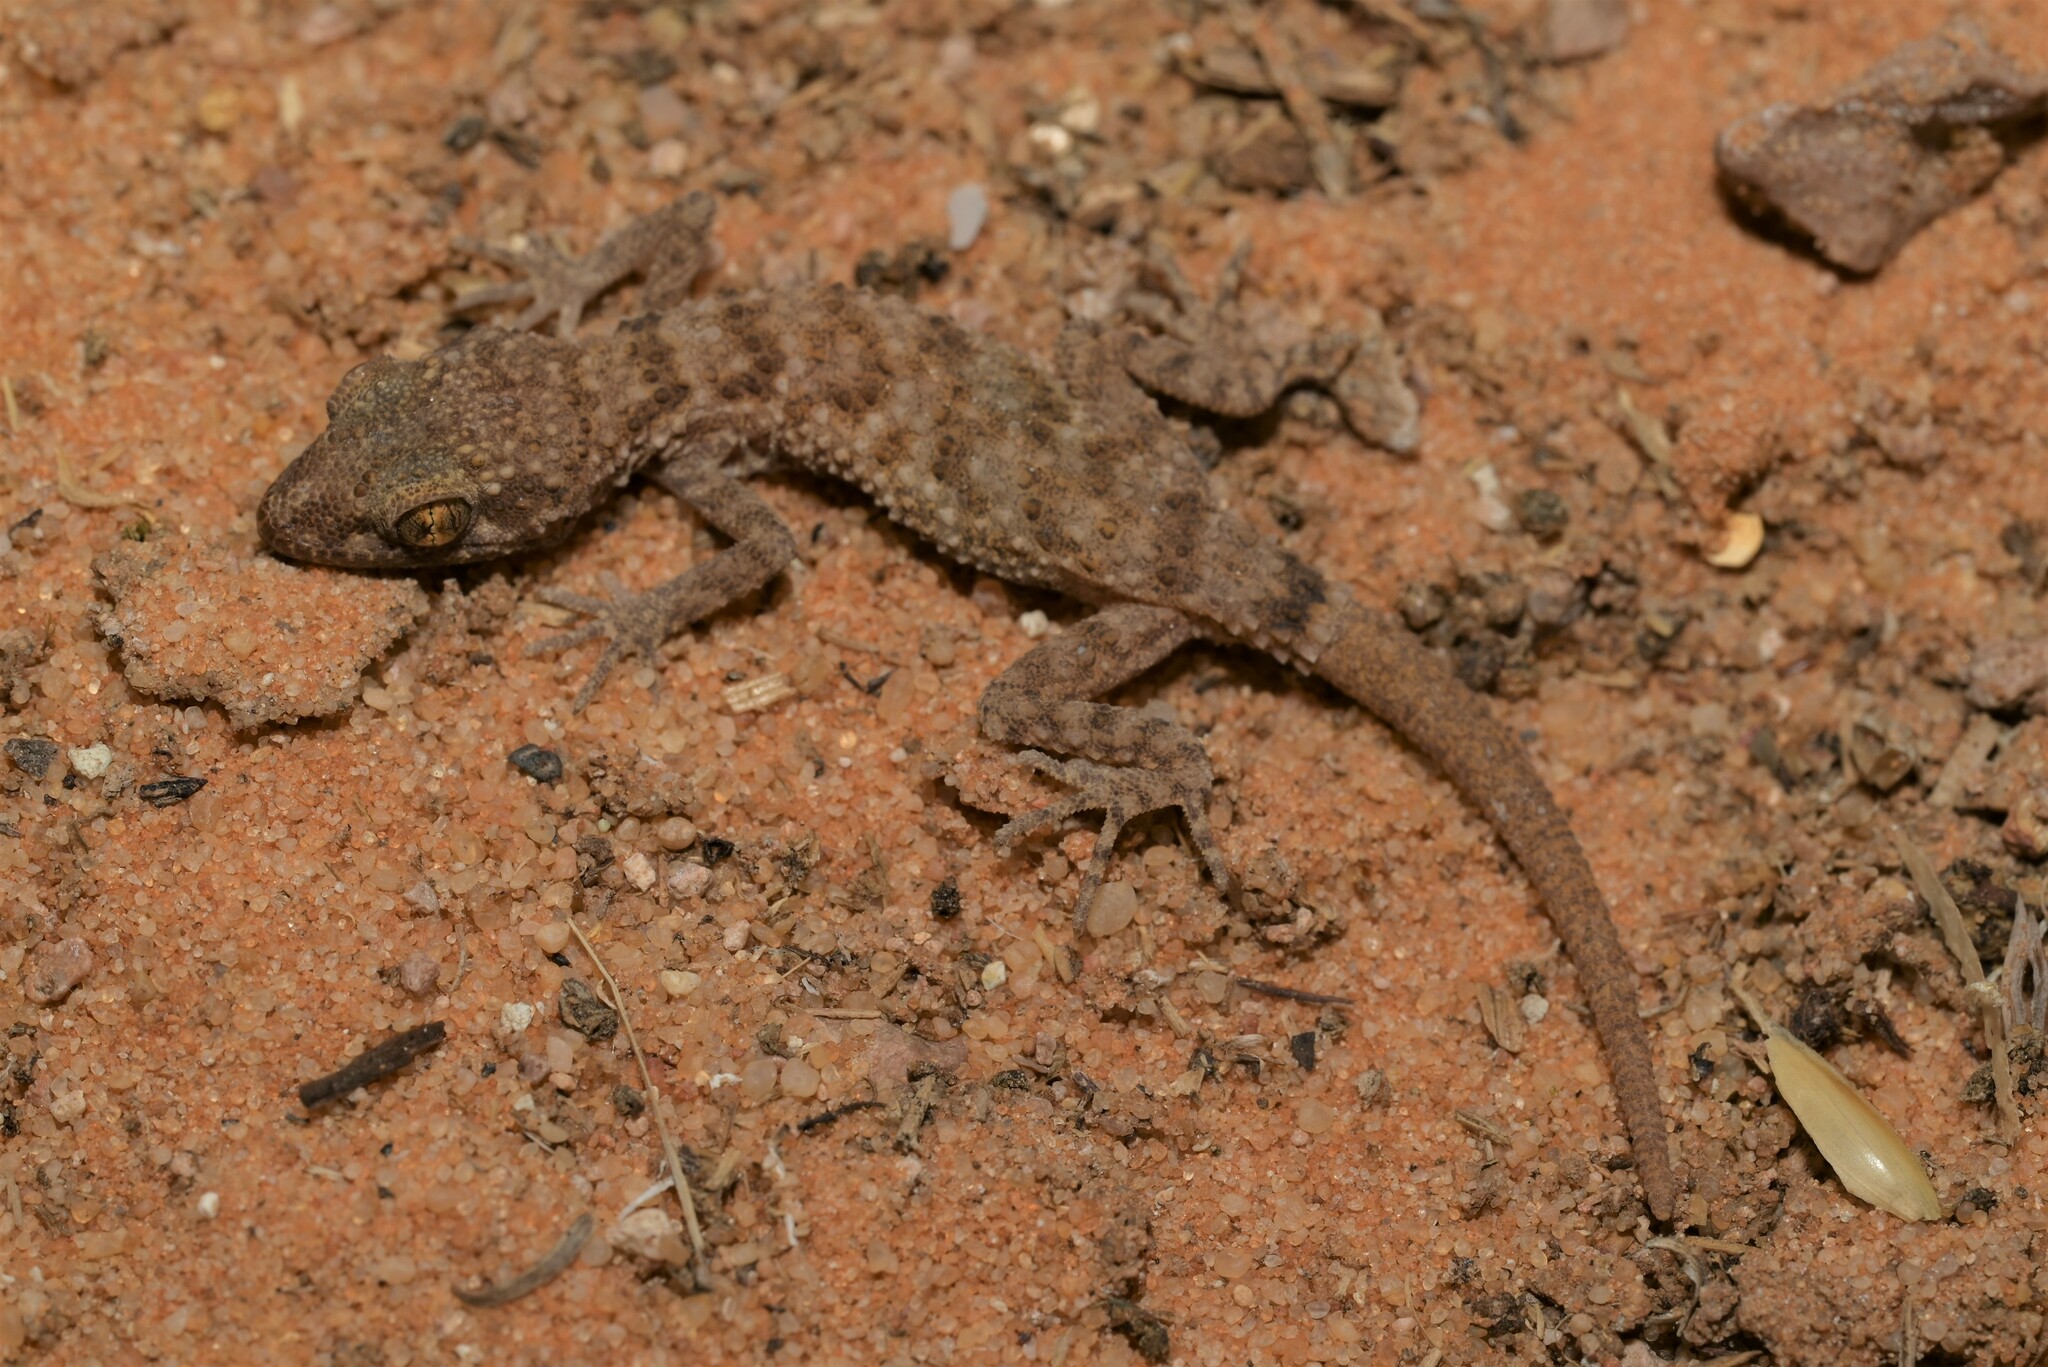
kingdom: Animalia
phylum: Chordata
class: Squamata
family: Gekkonidae
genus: Bunopus
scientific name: Bunopus tuberculatus
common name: Southern tuberculated gecko
